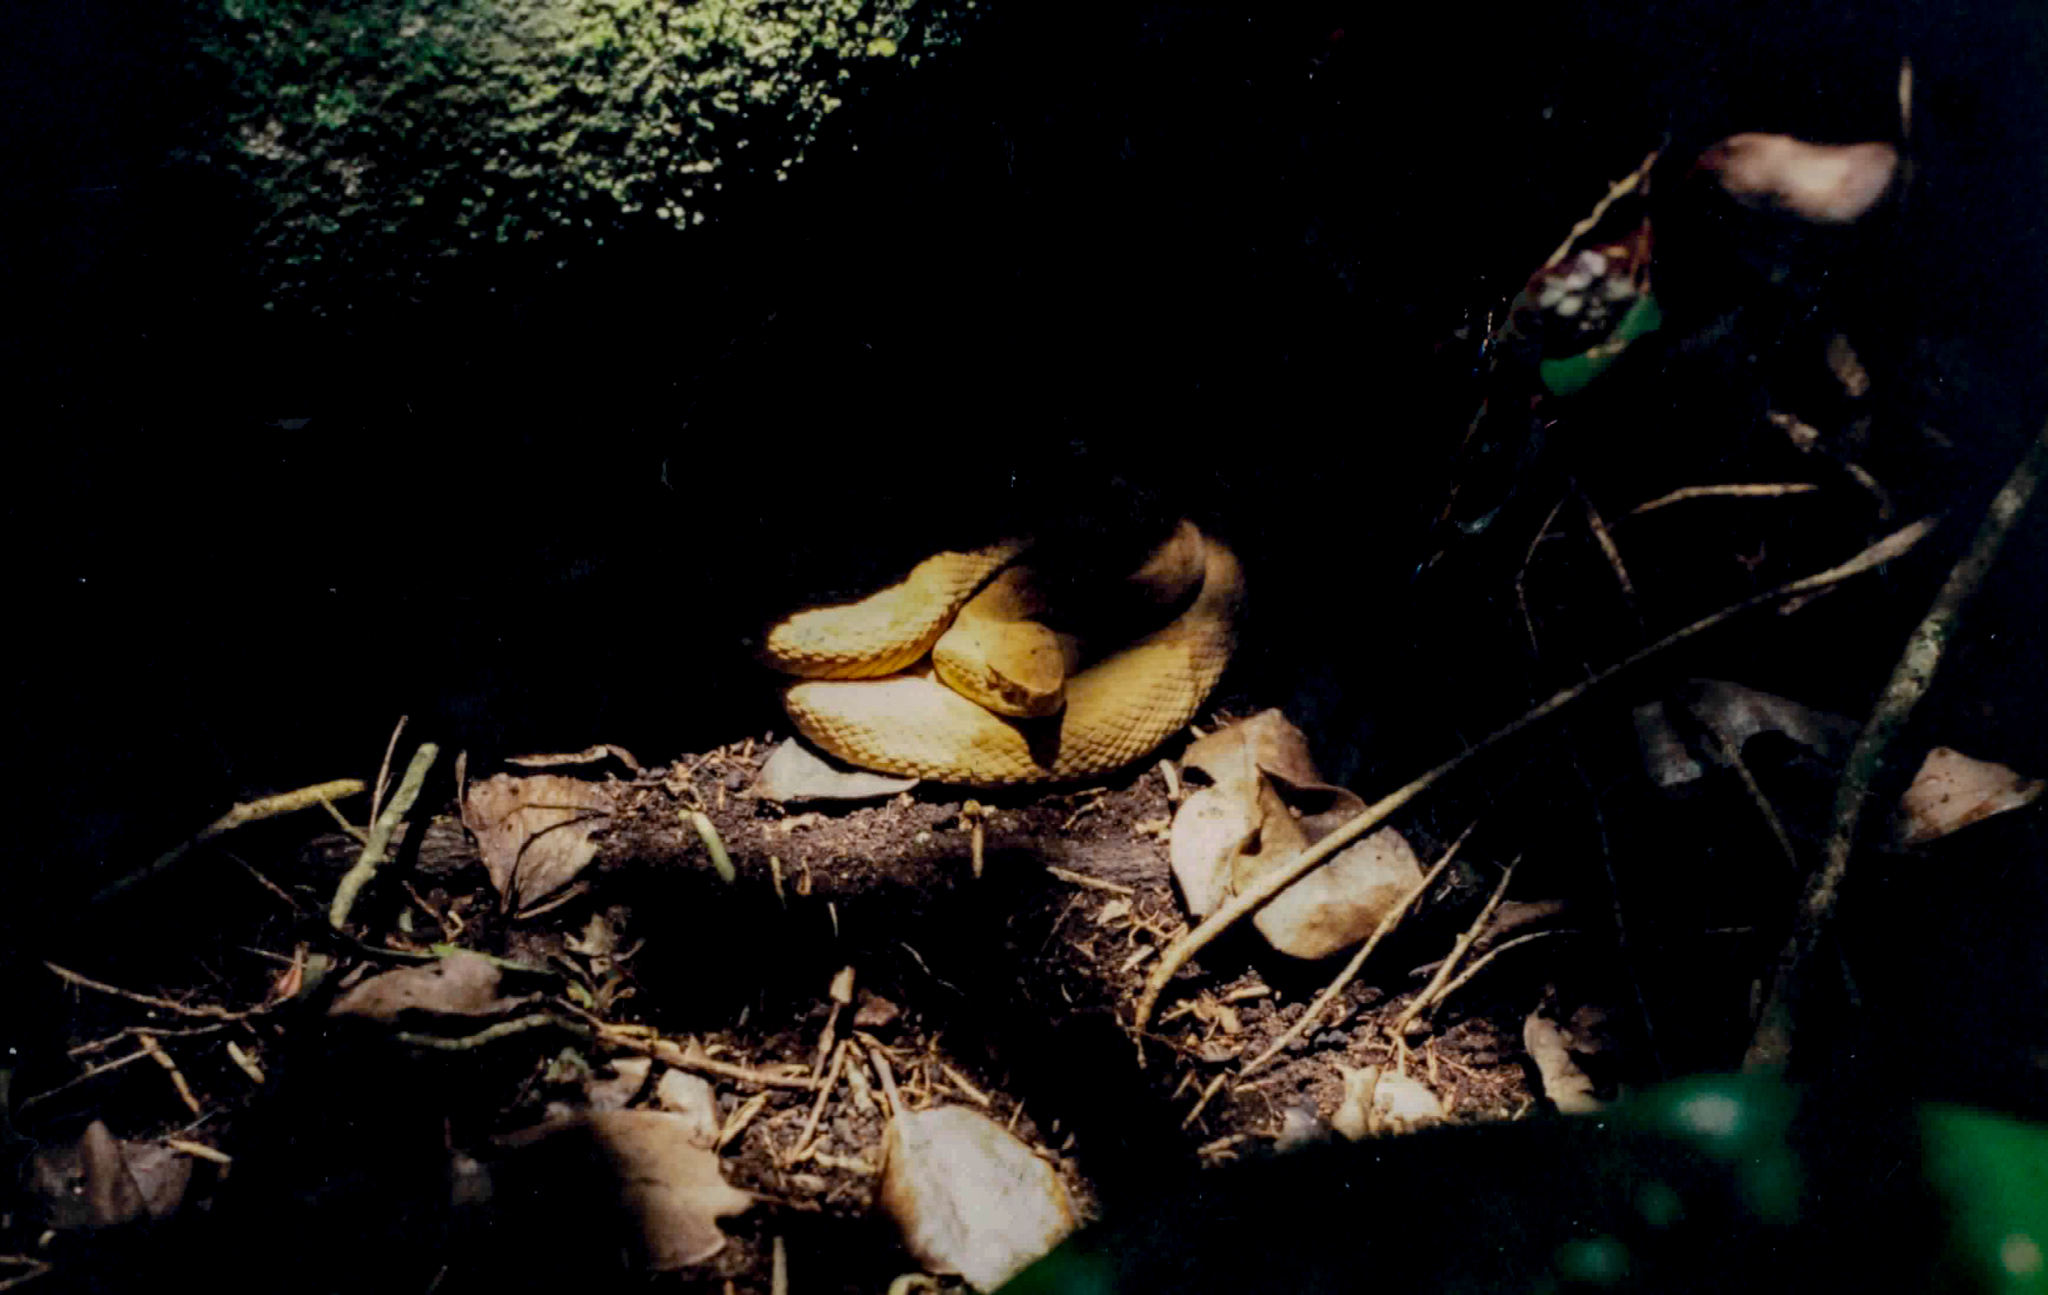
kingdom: Animalia
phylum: Chordata
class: Squamata
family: Viperidae
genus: Bothrops
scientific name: Bothrops insularis
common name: Golden lancehead
